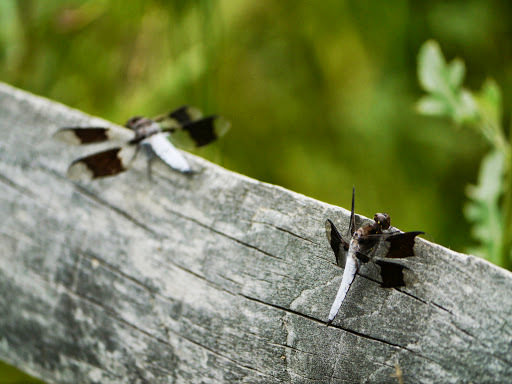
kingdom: Animalia
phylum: Arthropoda
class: Insecta
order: Odonata
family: Libellulidae
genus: Plathemis
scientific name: Plathemis lydia
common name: Common whitetail
